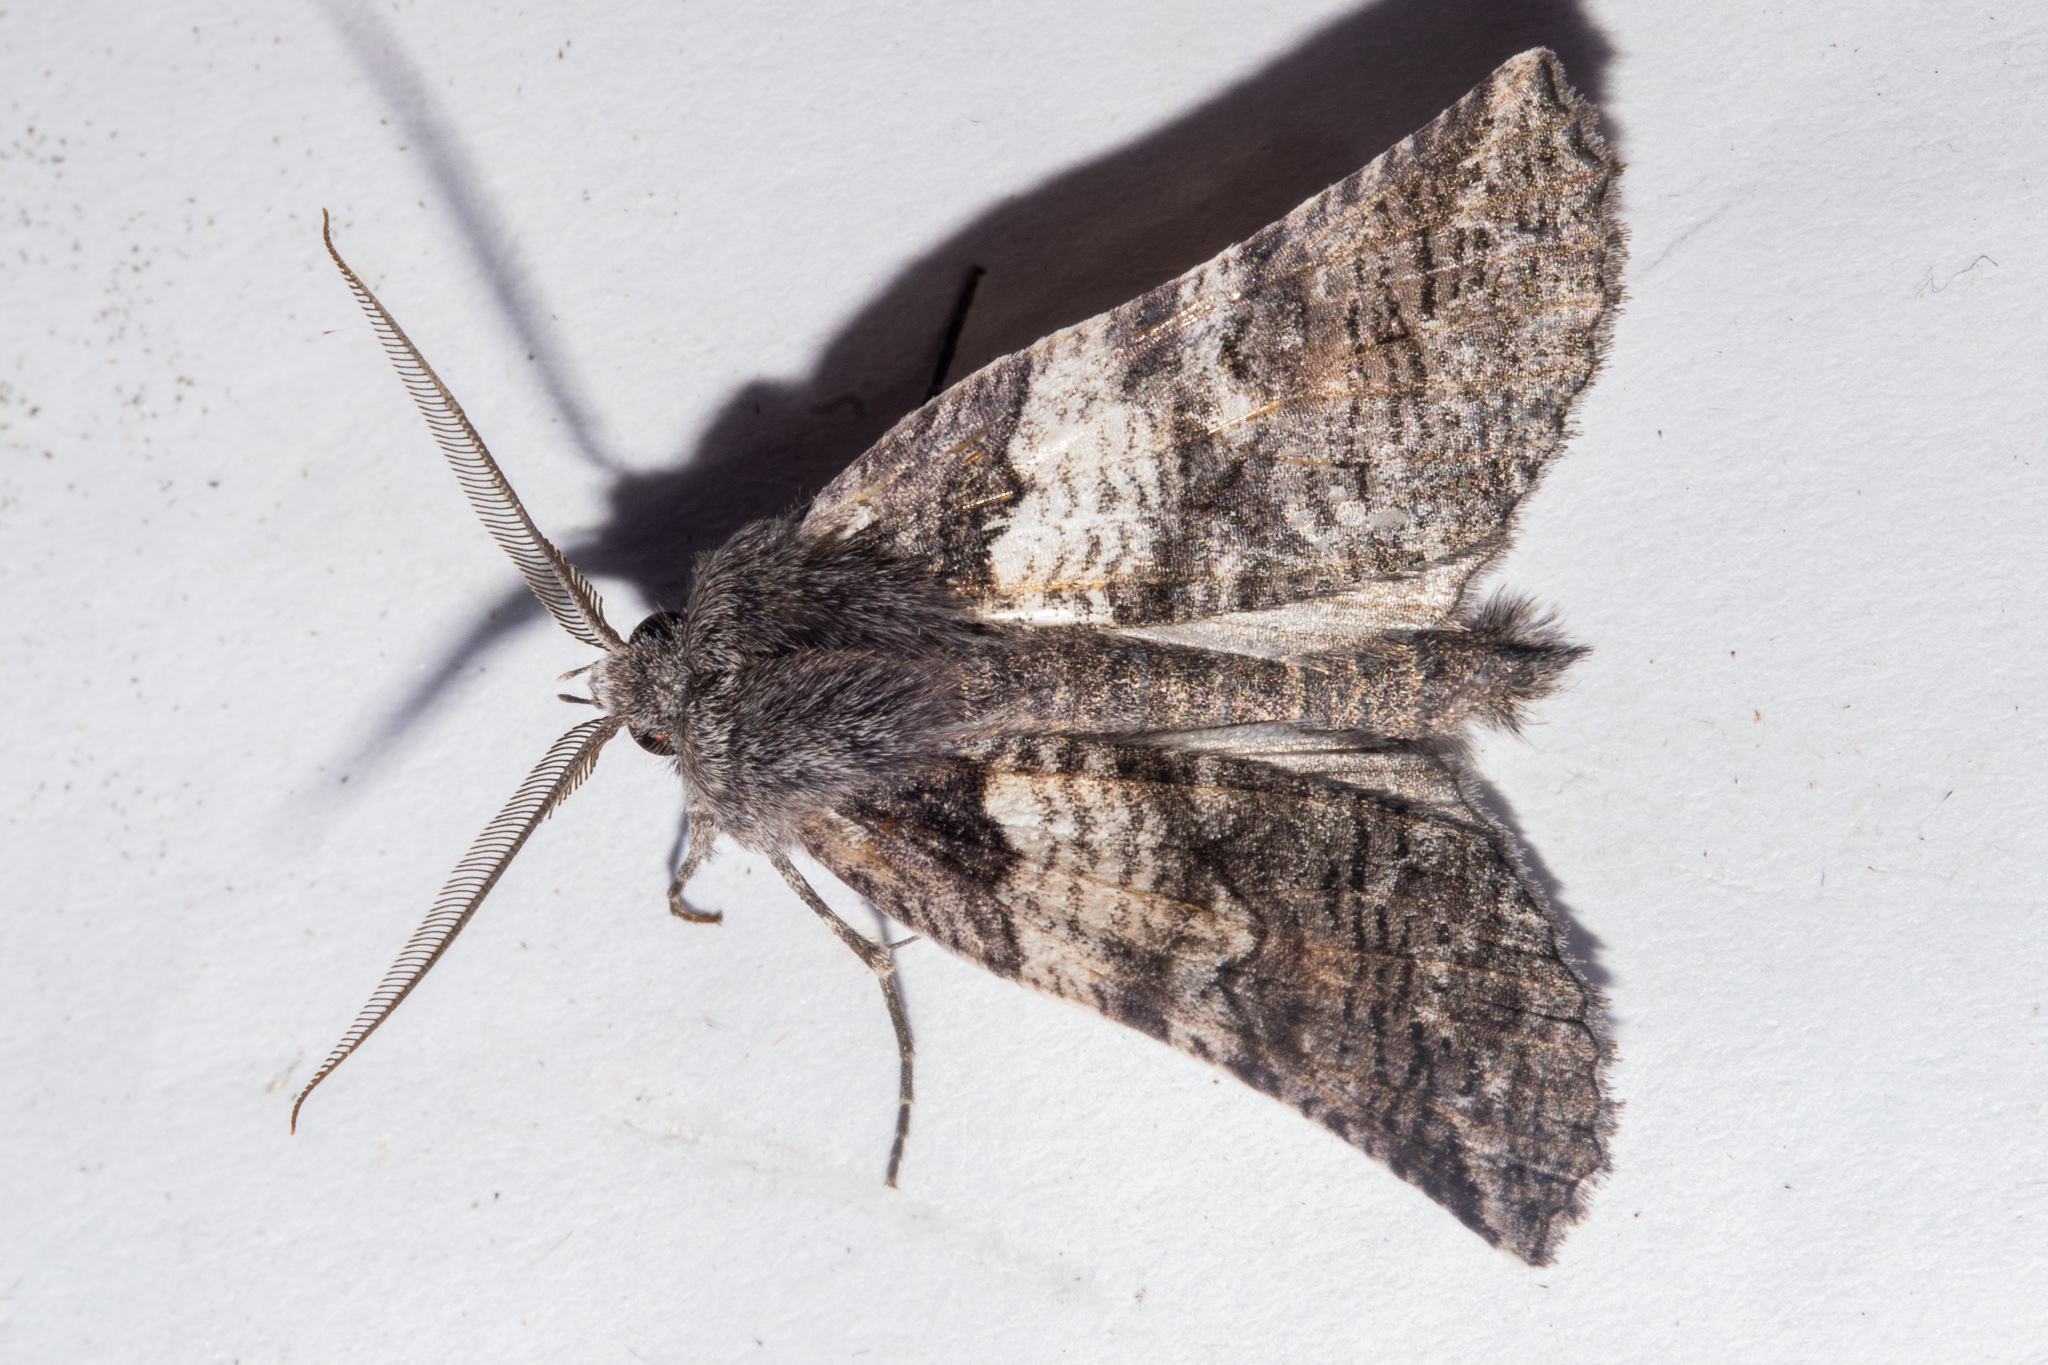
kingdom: Animalia
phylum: Arthropoda
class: Insecta
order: Lepidoptera
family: Geometridae
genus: Declana
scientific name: Declana
